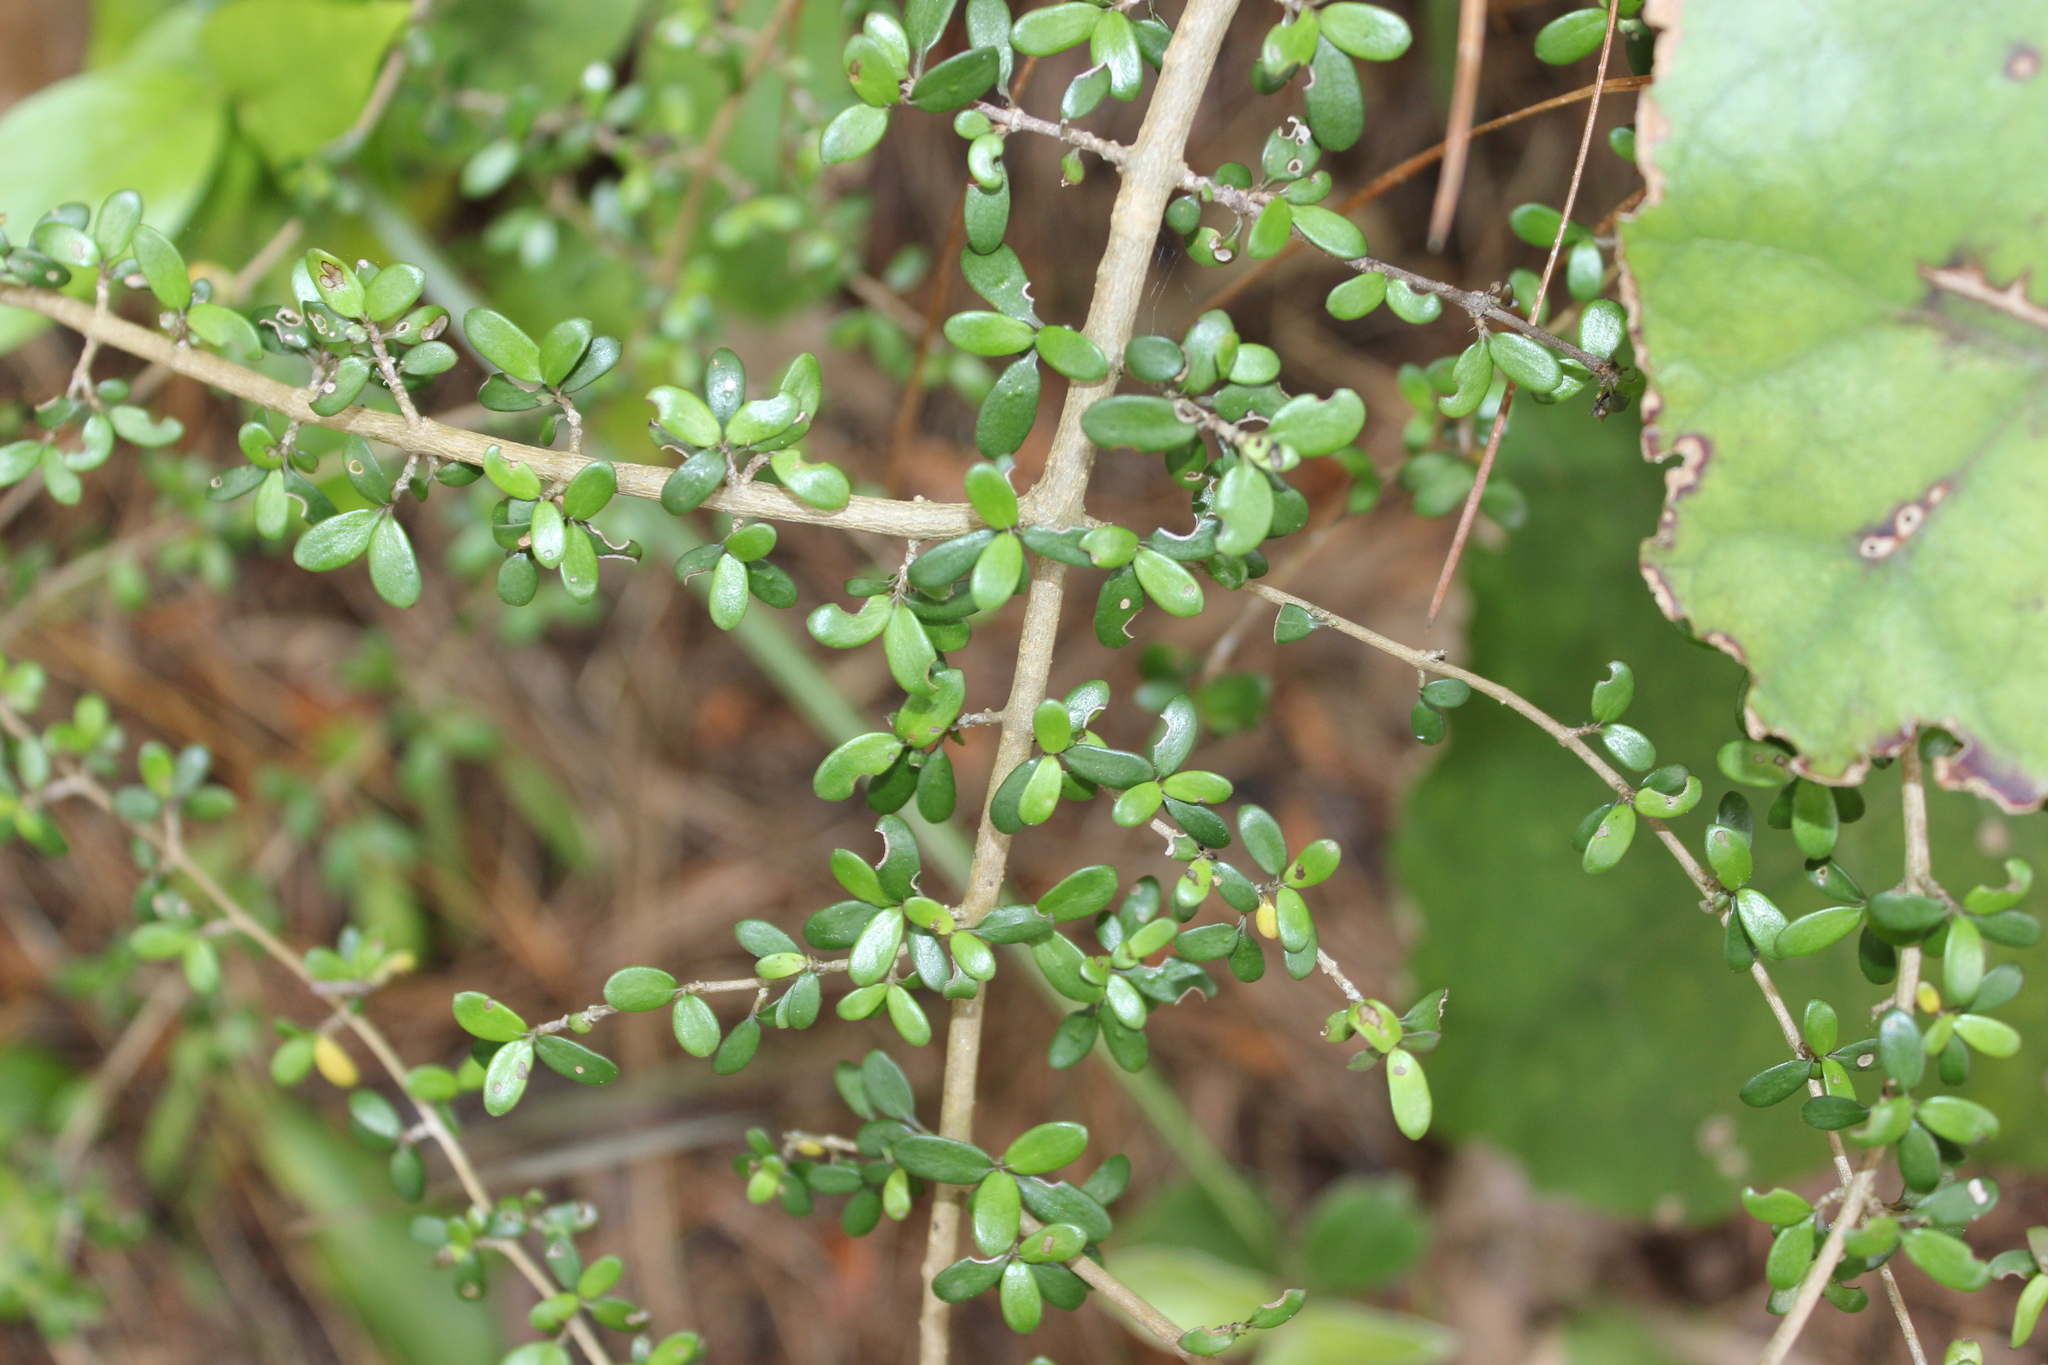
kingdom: Plantae
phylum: Tracheophyta
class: Magnoliopsida
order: Gentianales
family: Rubiaceae
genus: Coprosma
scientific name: Coprosma propinqua
